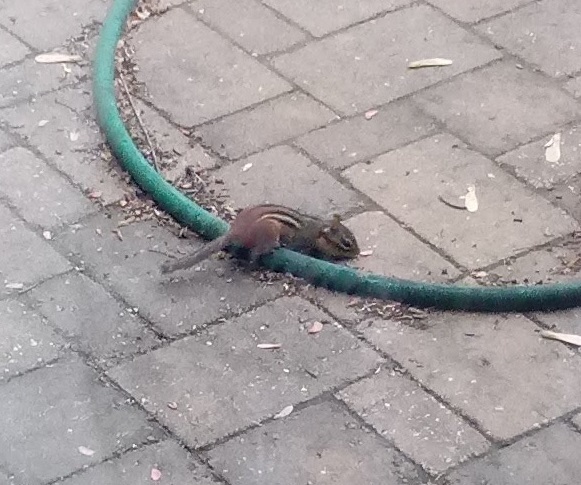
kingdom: Animalia
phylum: Chordata
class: Mammalia
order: Rodentia
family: Sciuridae
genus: Tamias
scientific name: Tamias striatus
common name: Eastern chipmunk
